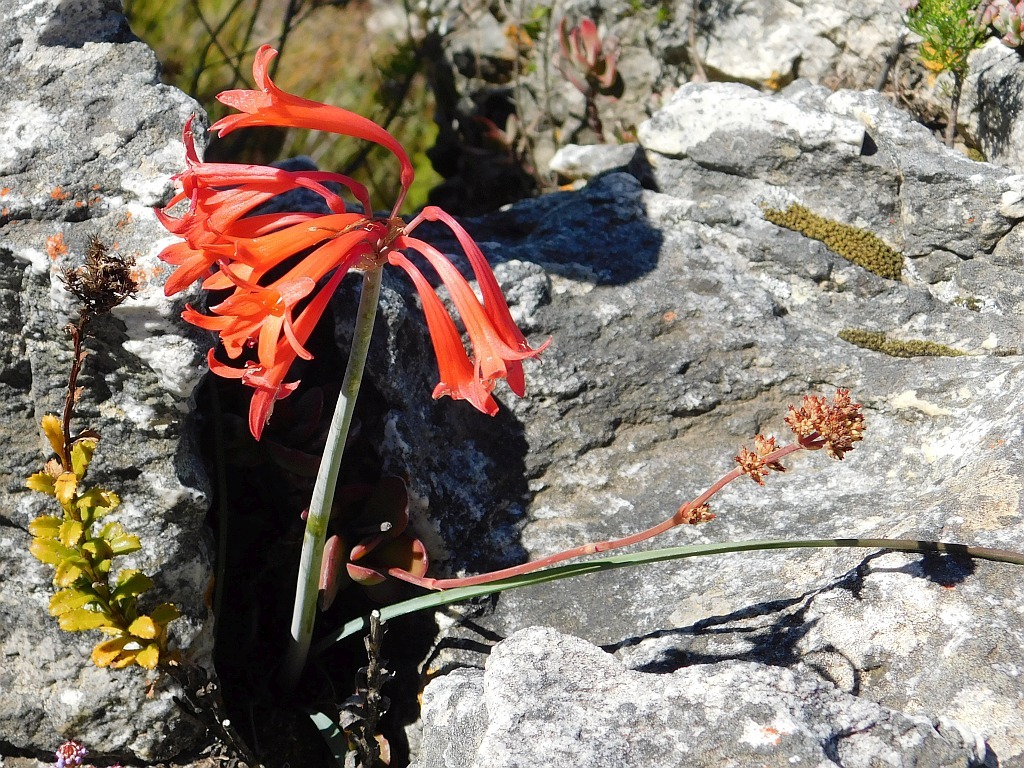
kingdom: Plantae
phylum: Tracheophyta
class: Liliopsida
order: Asparagales
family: Amaryllidaceae
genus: Cyrtanthus
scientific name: Cyrtanthus collinus
